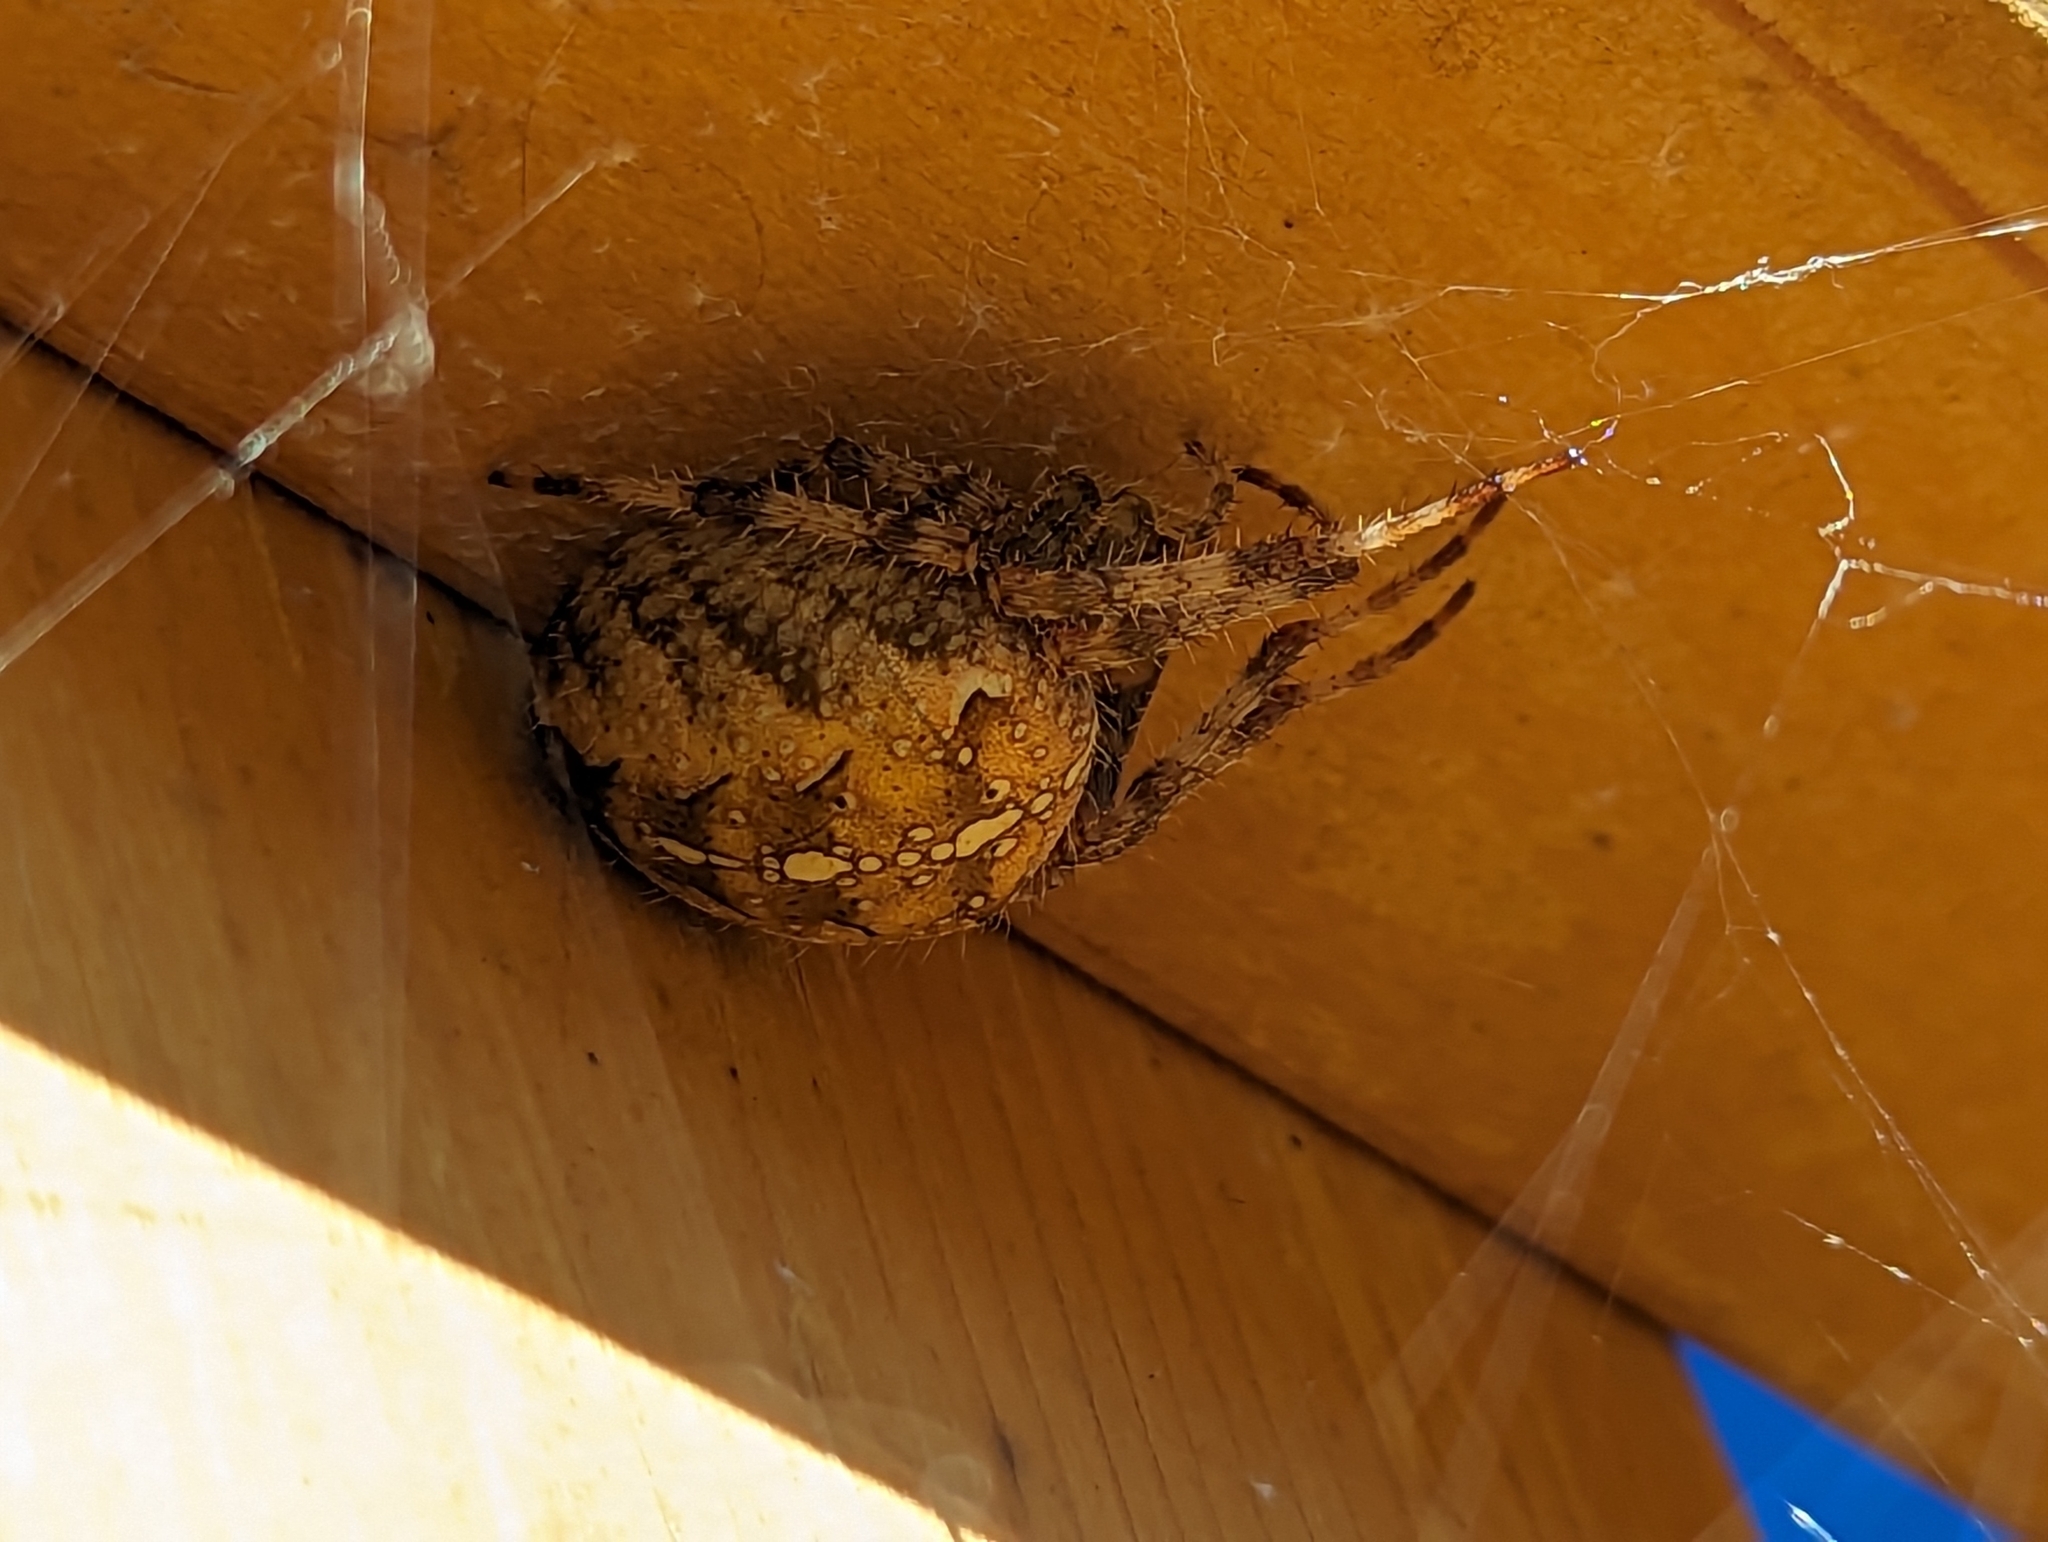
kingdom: Animalia
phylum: Arthropoda
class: Arachnida
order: Araneae
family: Araneidae
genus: Araneus
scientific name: Araneus diadematus
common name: Cross orbweaver
